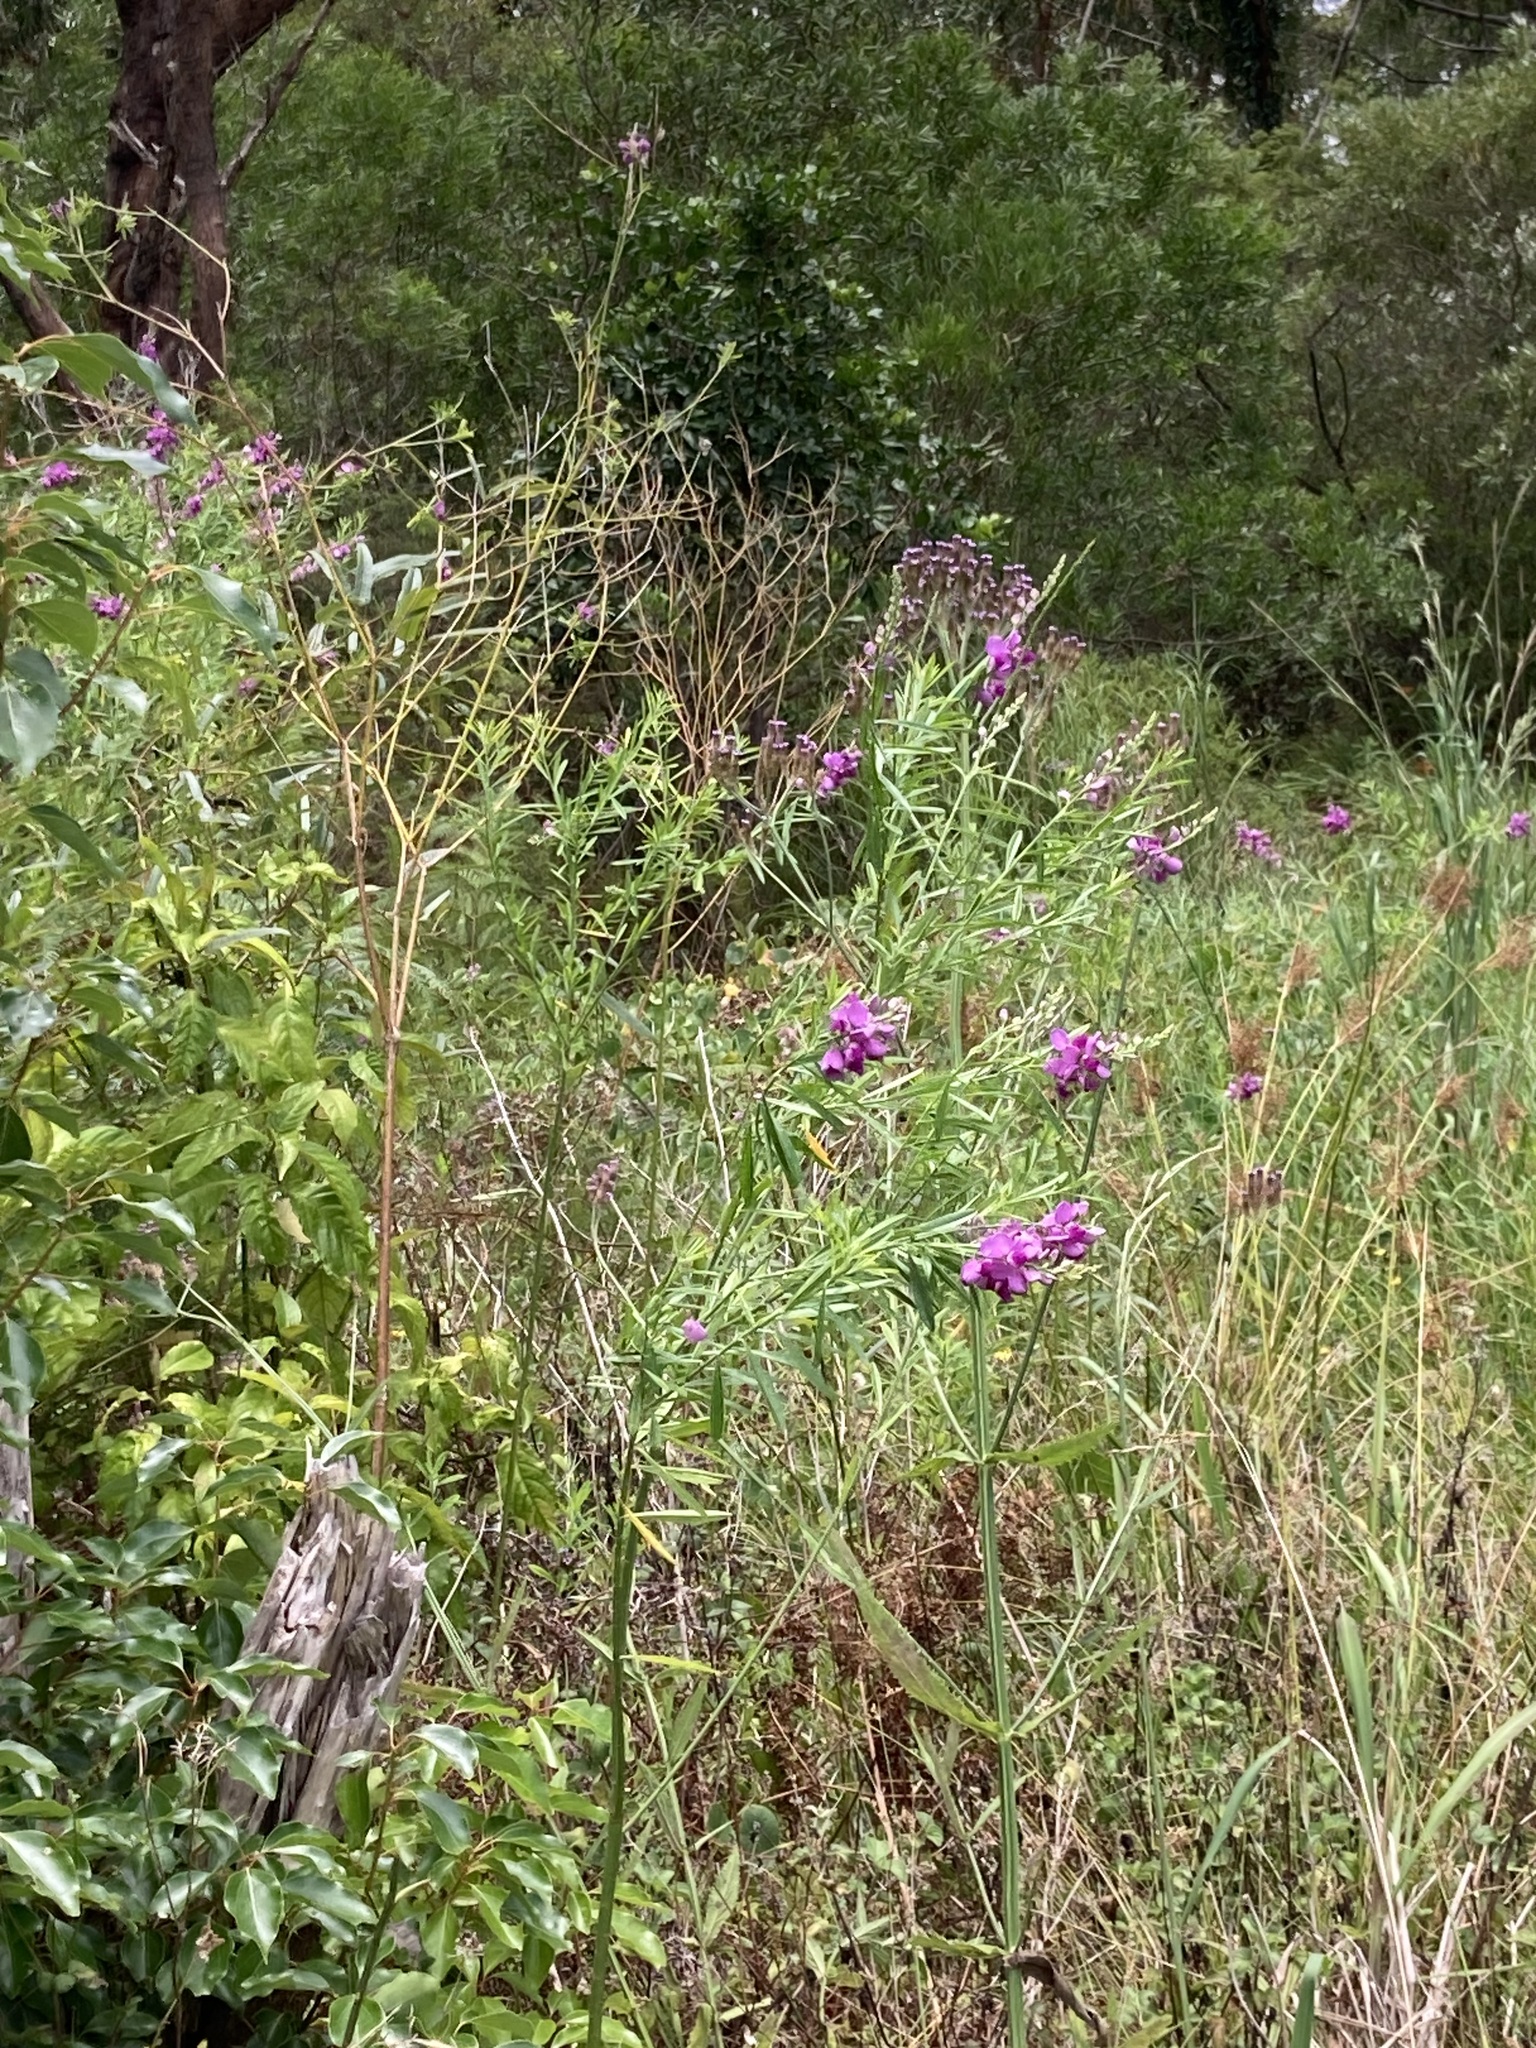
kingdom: Plantae
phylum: Tracheophyta
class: Magnoliopsida
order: Fabales
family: Polygalaceae
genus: Polygala
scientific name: Polygala virgata
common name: Milkwort
